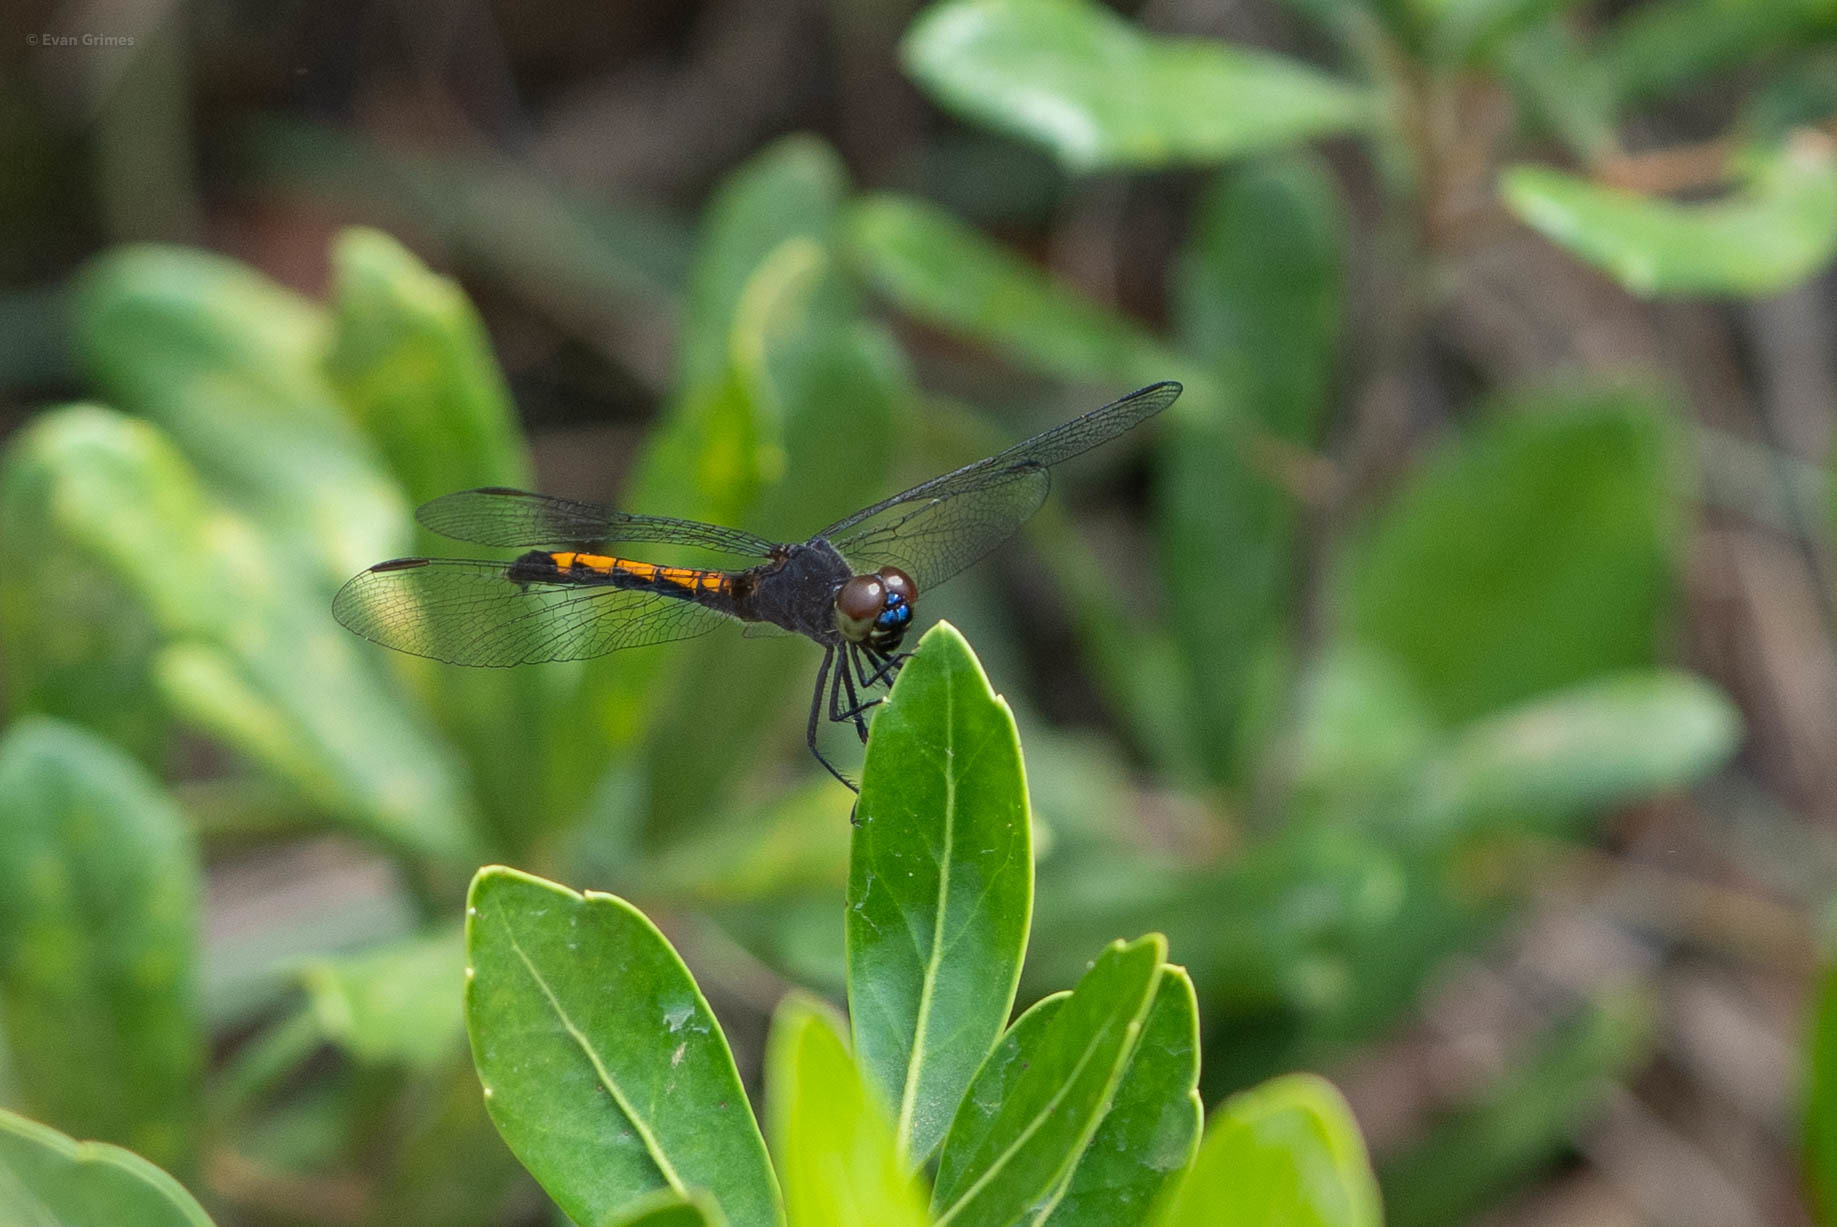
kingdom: Animalia
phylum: Arthropoda
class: Insecta
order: Odonata
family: Libellulidae
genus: Erythrodiplax
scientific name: Erythrodiplax berenice
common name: Seaside dragonlet
